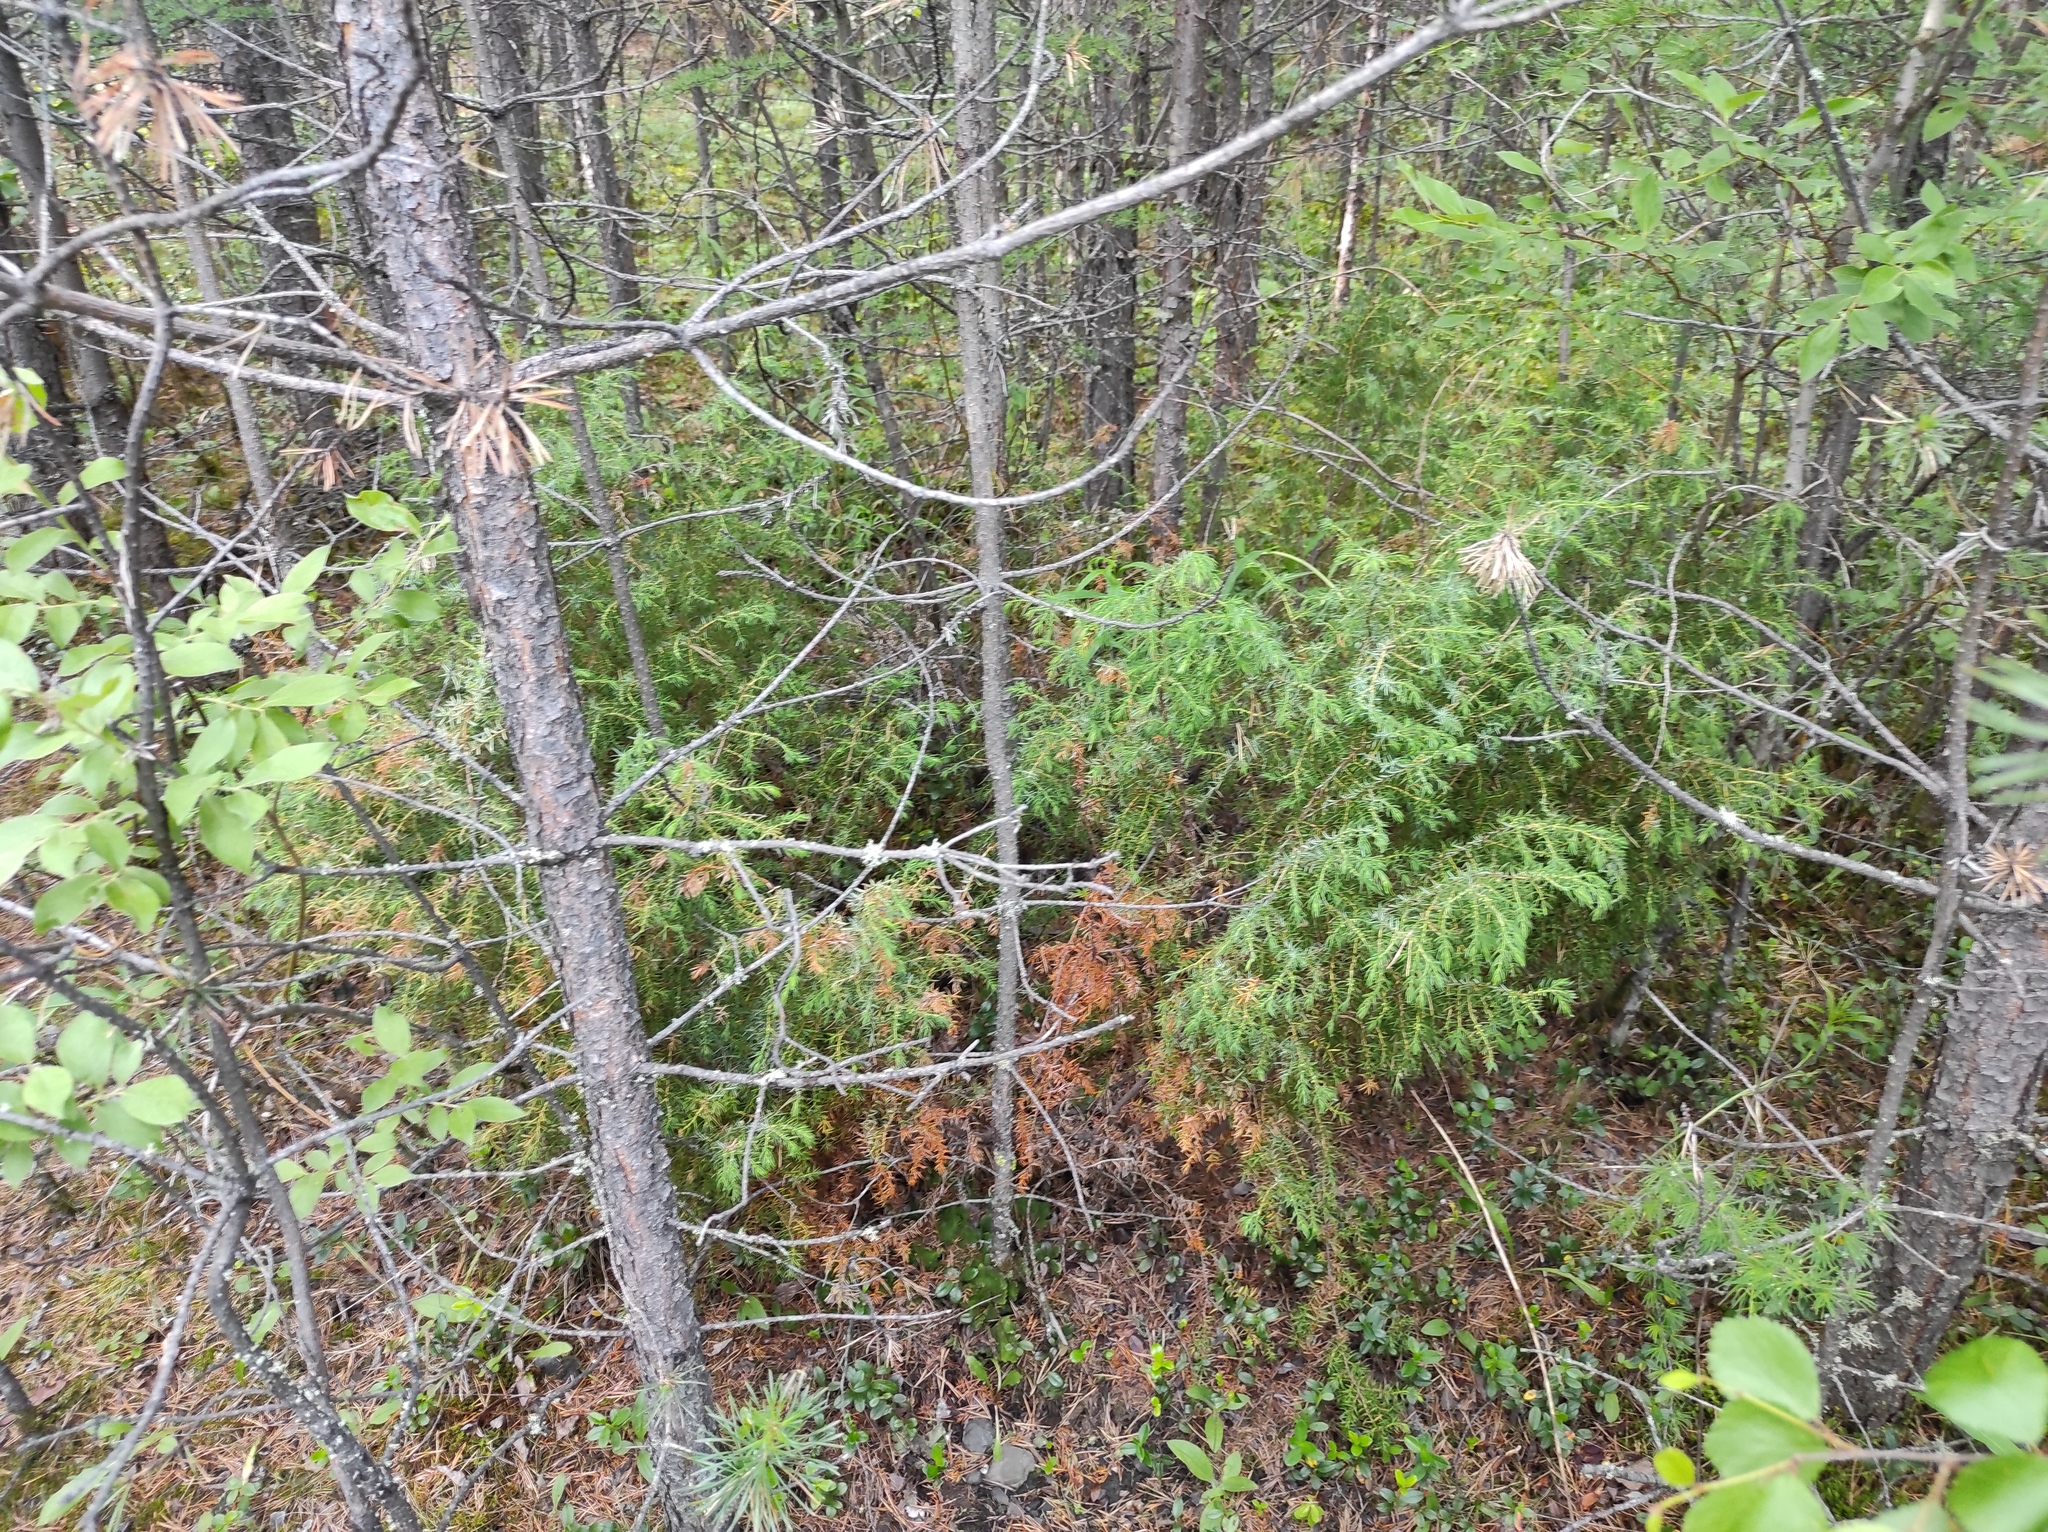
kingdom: Plantae
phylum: Tracheophyta
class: Pinopsida
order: Pinales
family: Cupressaceae
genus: Juniperus
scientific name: Juniperus communis
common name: Common juniper
